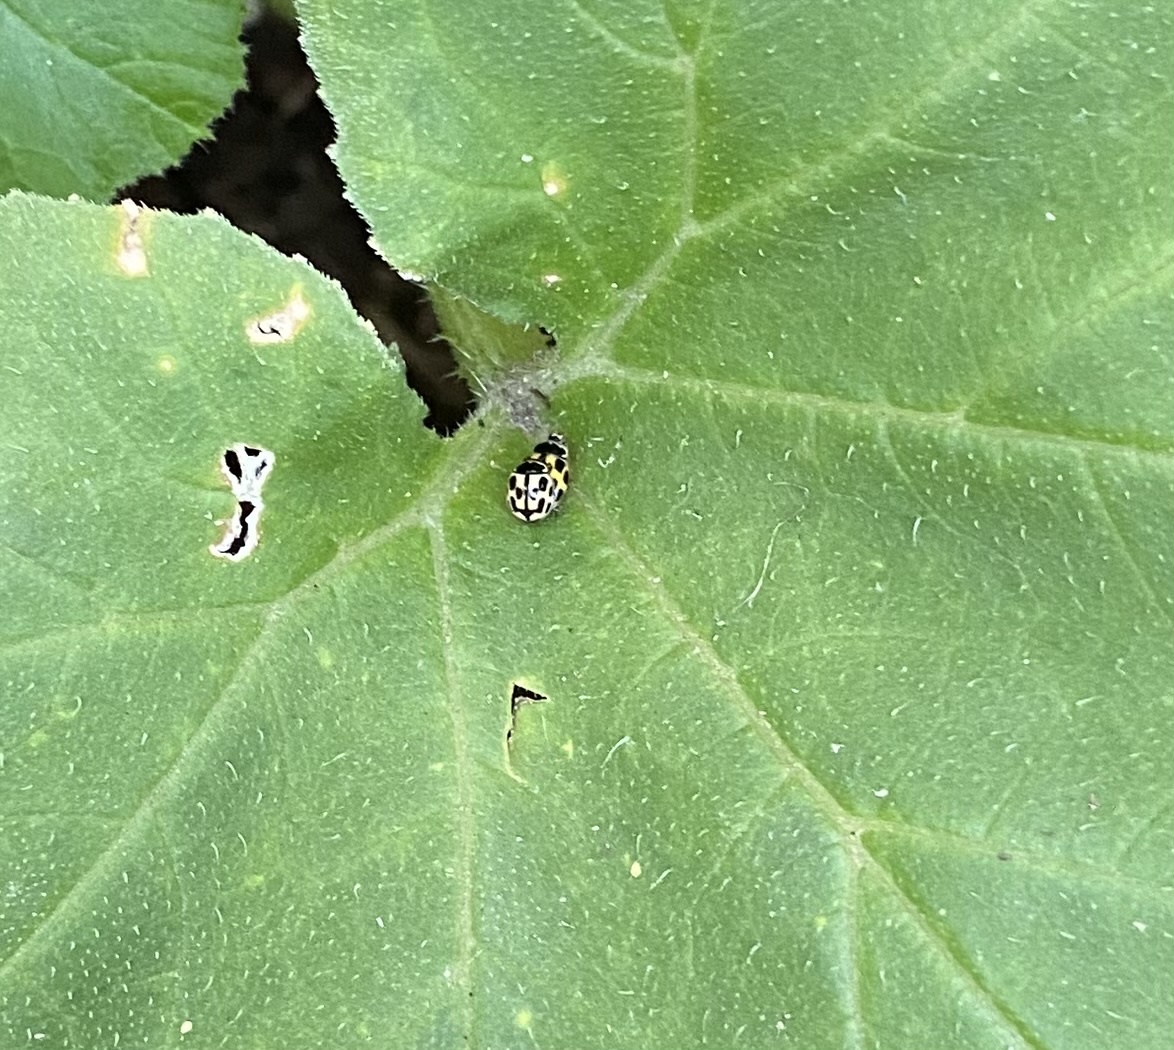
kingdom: Animalia
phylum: Arthropoda
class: Insecta
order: Coleoptera
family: Coccinellidae
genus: Propylaea
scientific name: Propylaea quatuordecimpunctata
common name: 14-spotted ladybird beetle
